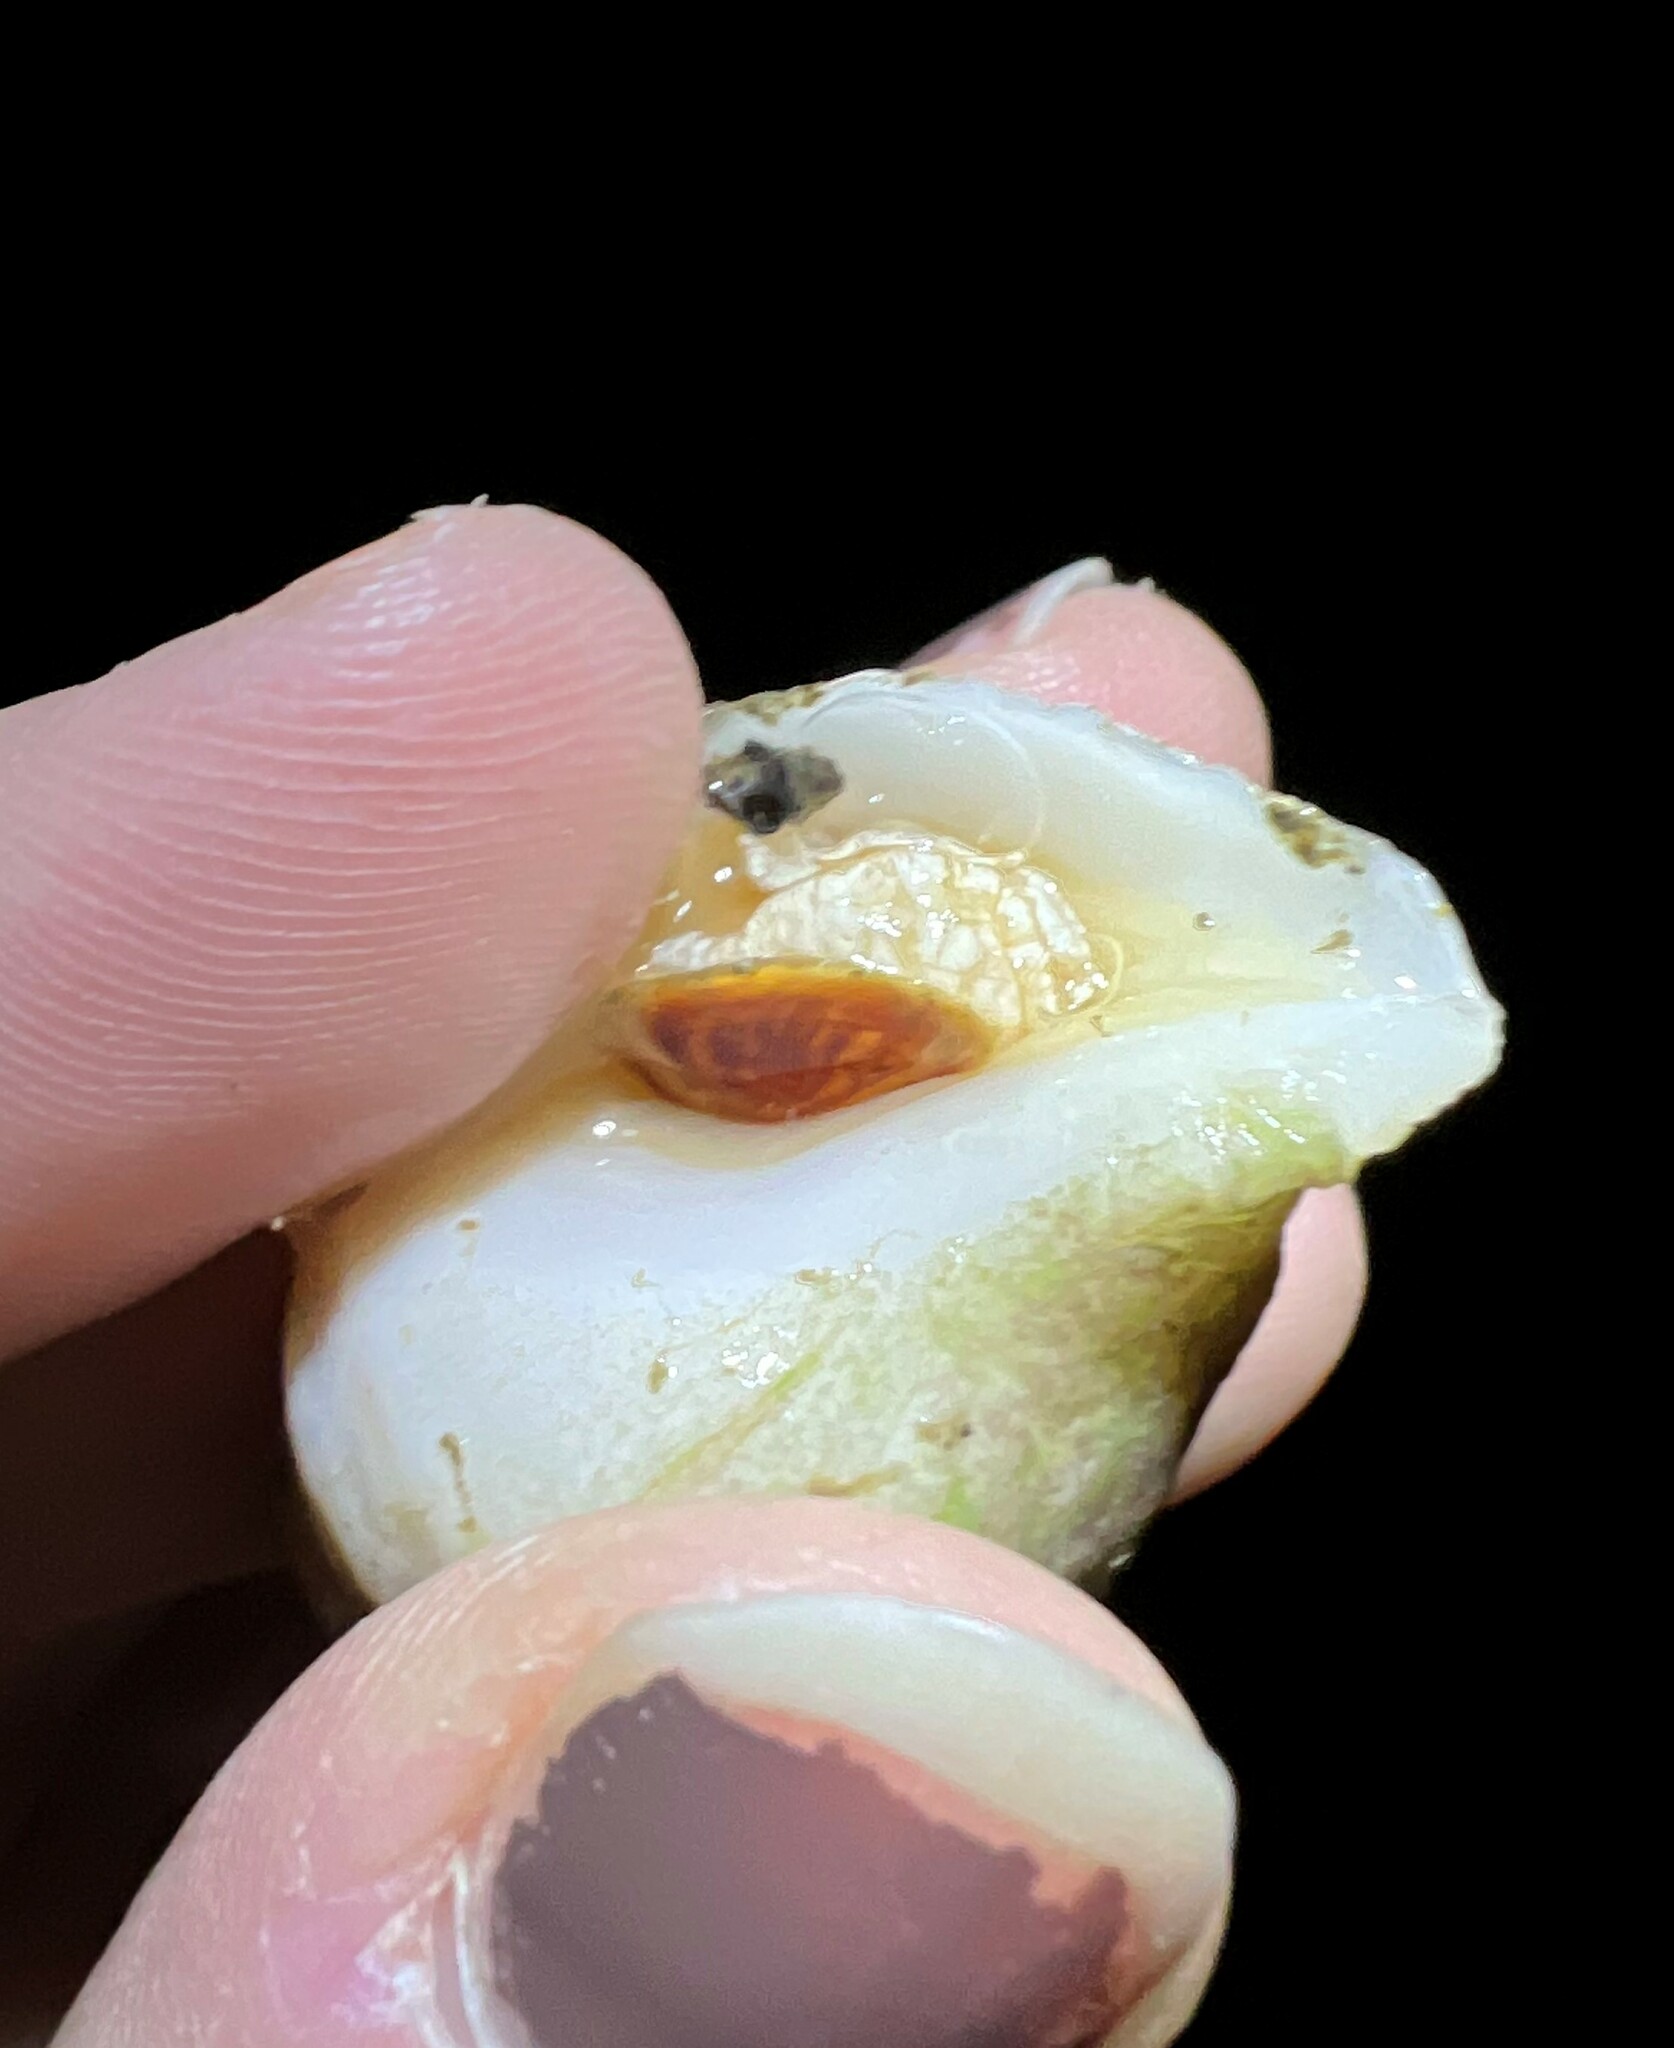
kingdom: Animalia
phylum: Mollusca
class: Gastropoda
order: Neogastropoda
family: Muricidae
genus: Nucella
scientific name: Nucella lamellosa
